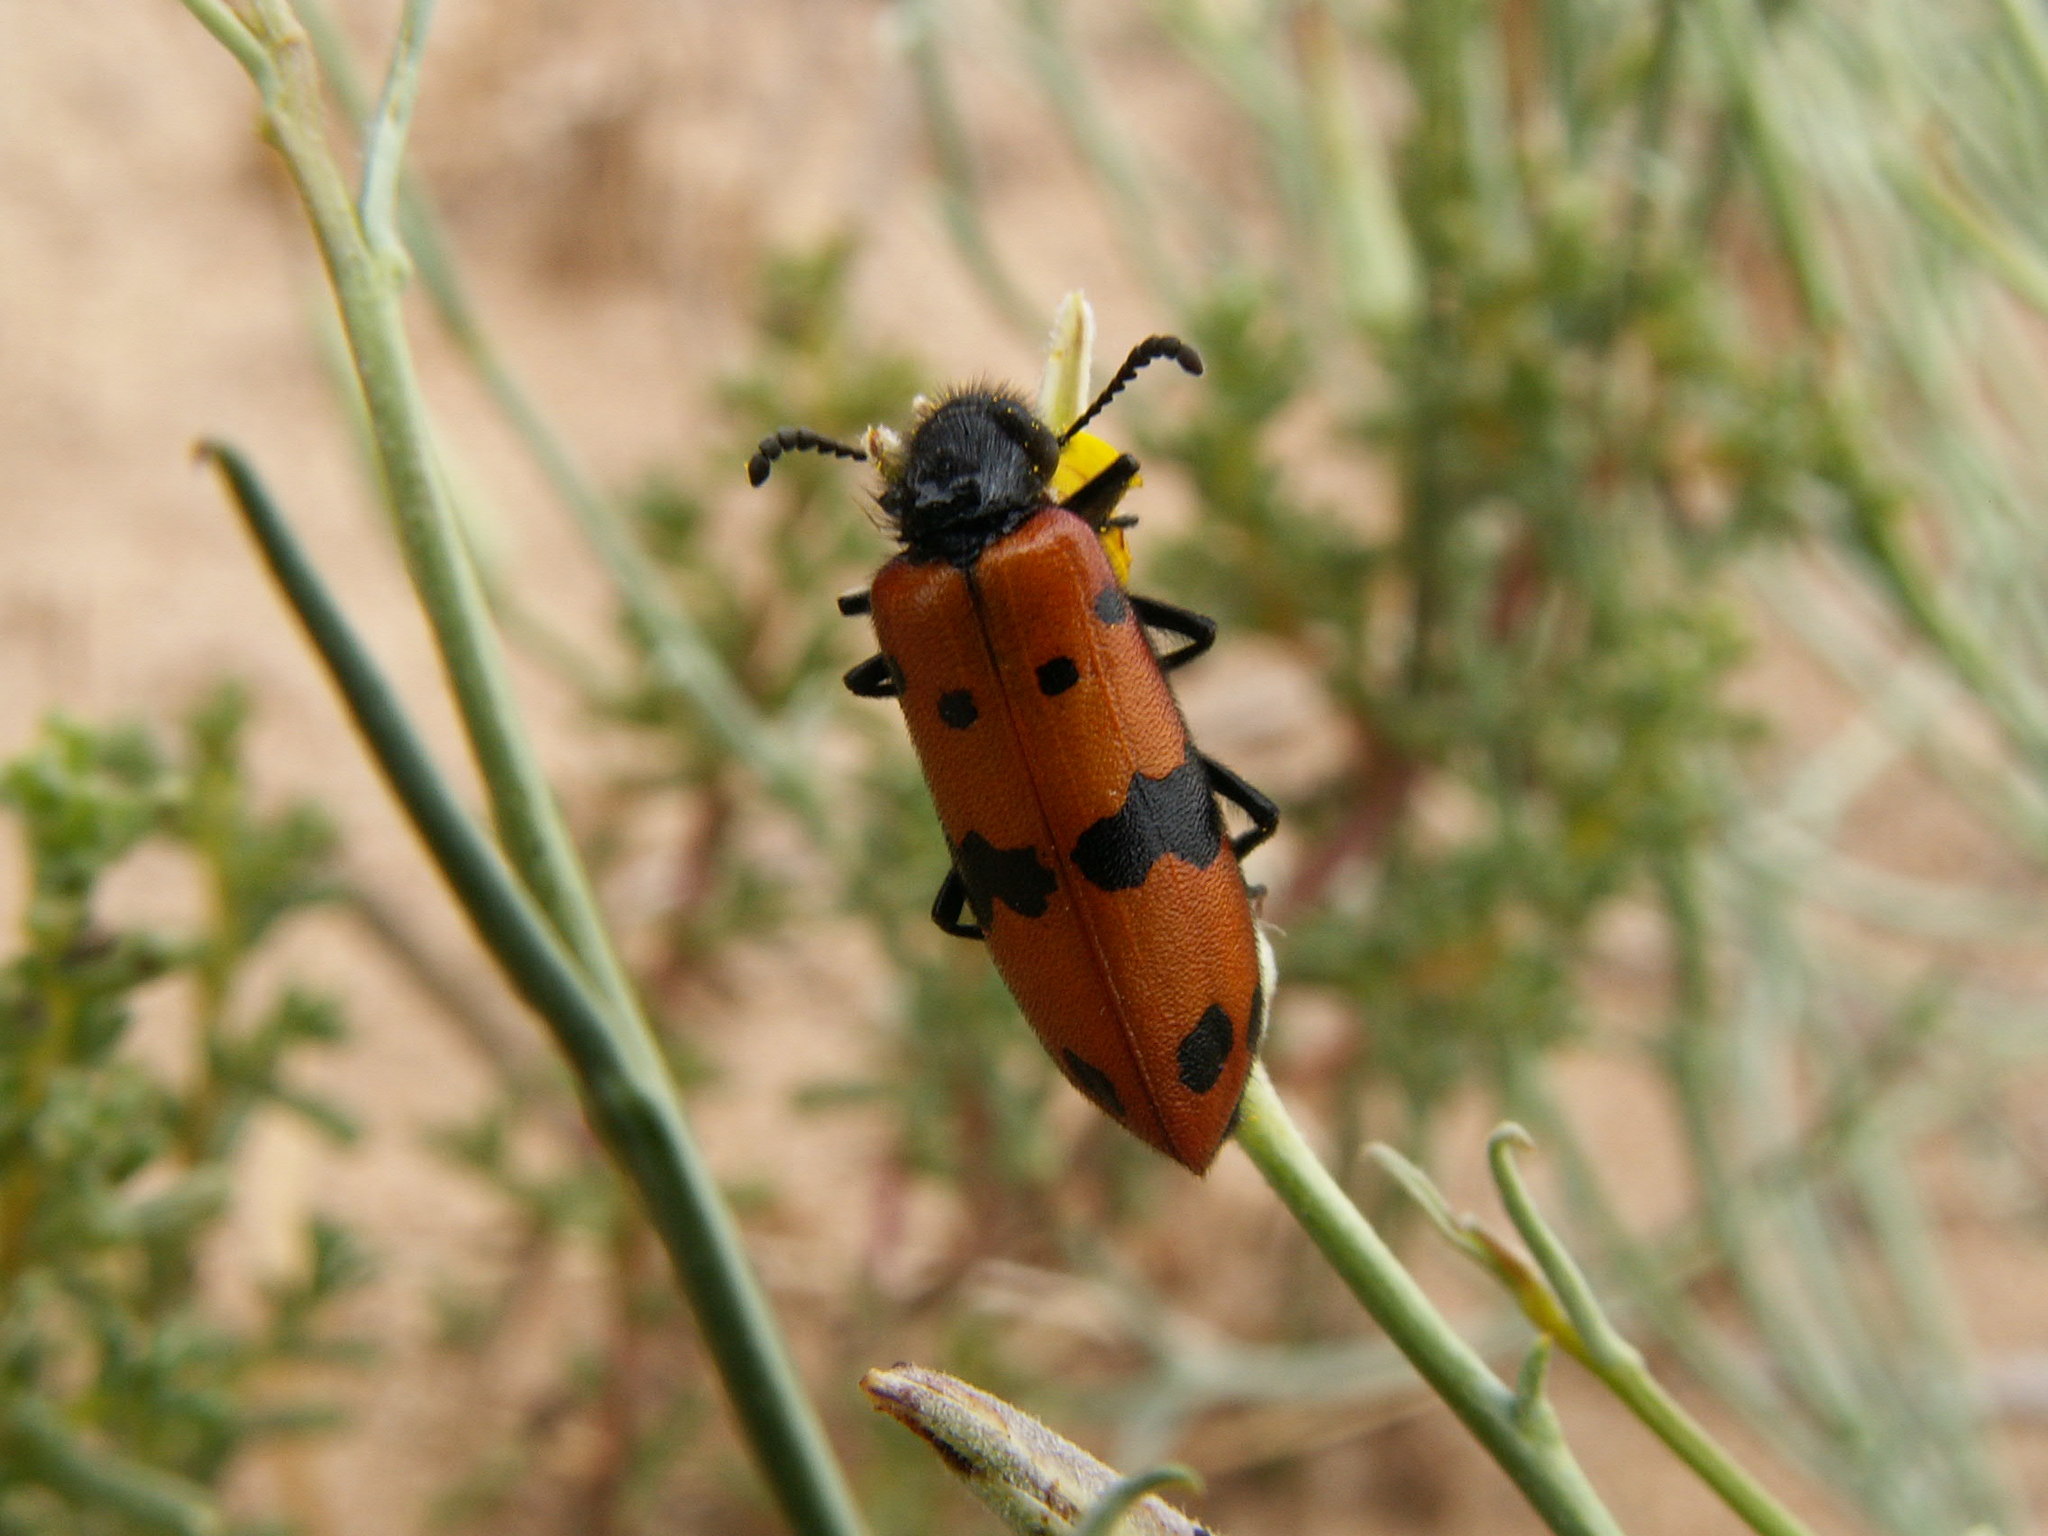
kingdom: Animalia
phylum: Arthropoda
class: Insecta
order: Coleoptera
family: Meloidae
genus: Mylabris
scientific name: Mylabris aulica
